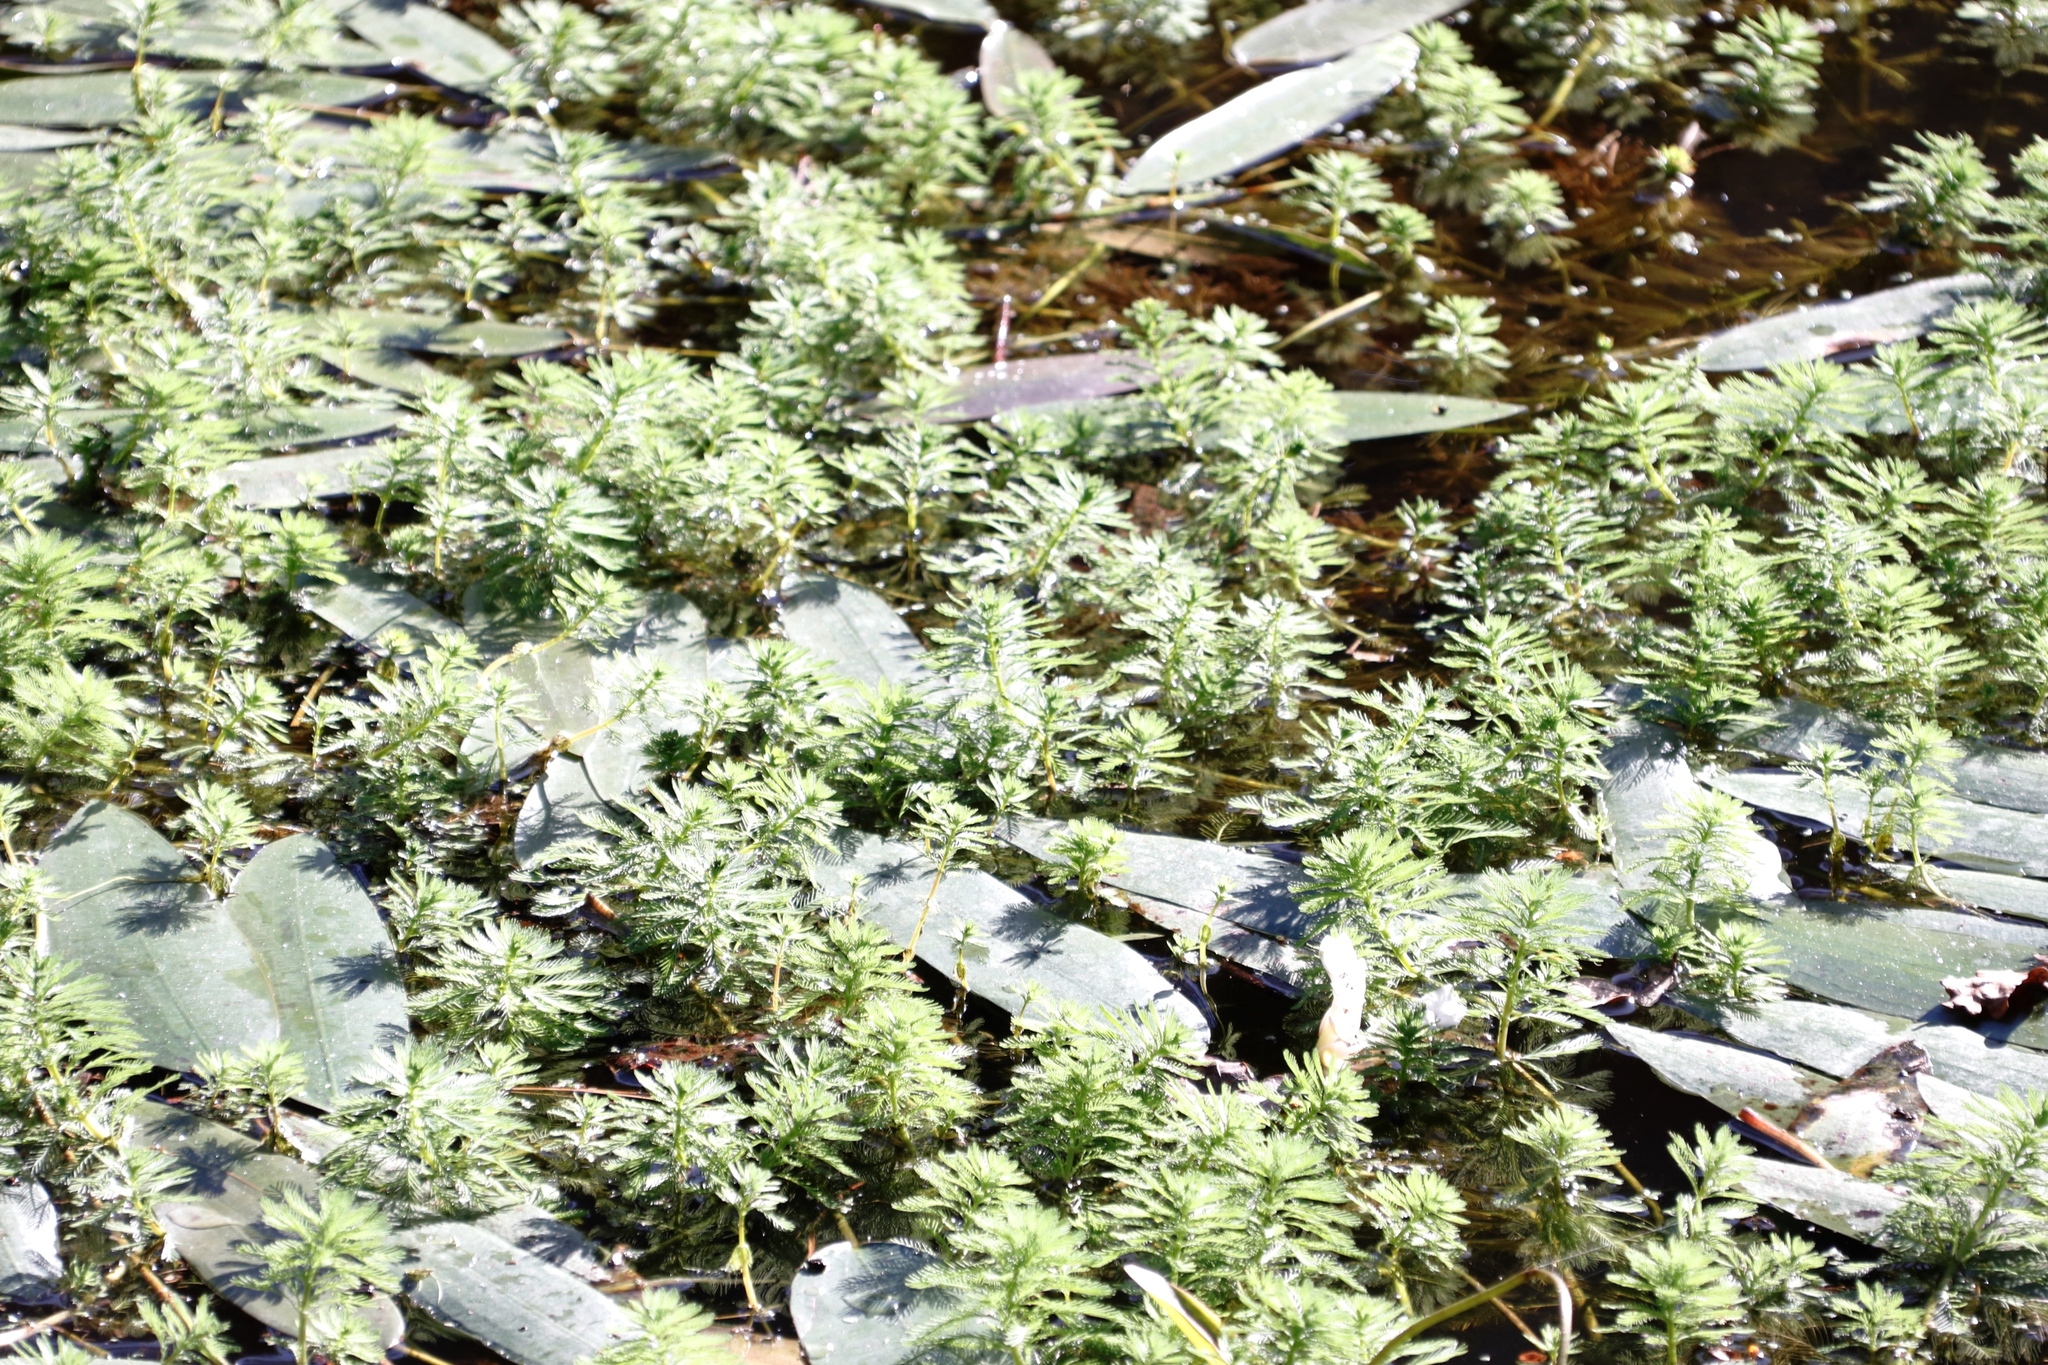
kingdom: Plantae
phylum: Tracheophyta
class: Magnoliopsida
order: Saxifragales
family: Haloragaceae
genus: Myriophyllum
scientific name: Myriophyllum aquaticum
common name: Parrot's feather
